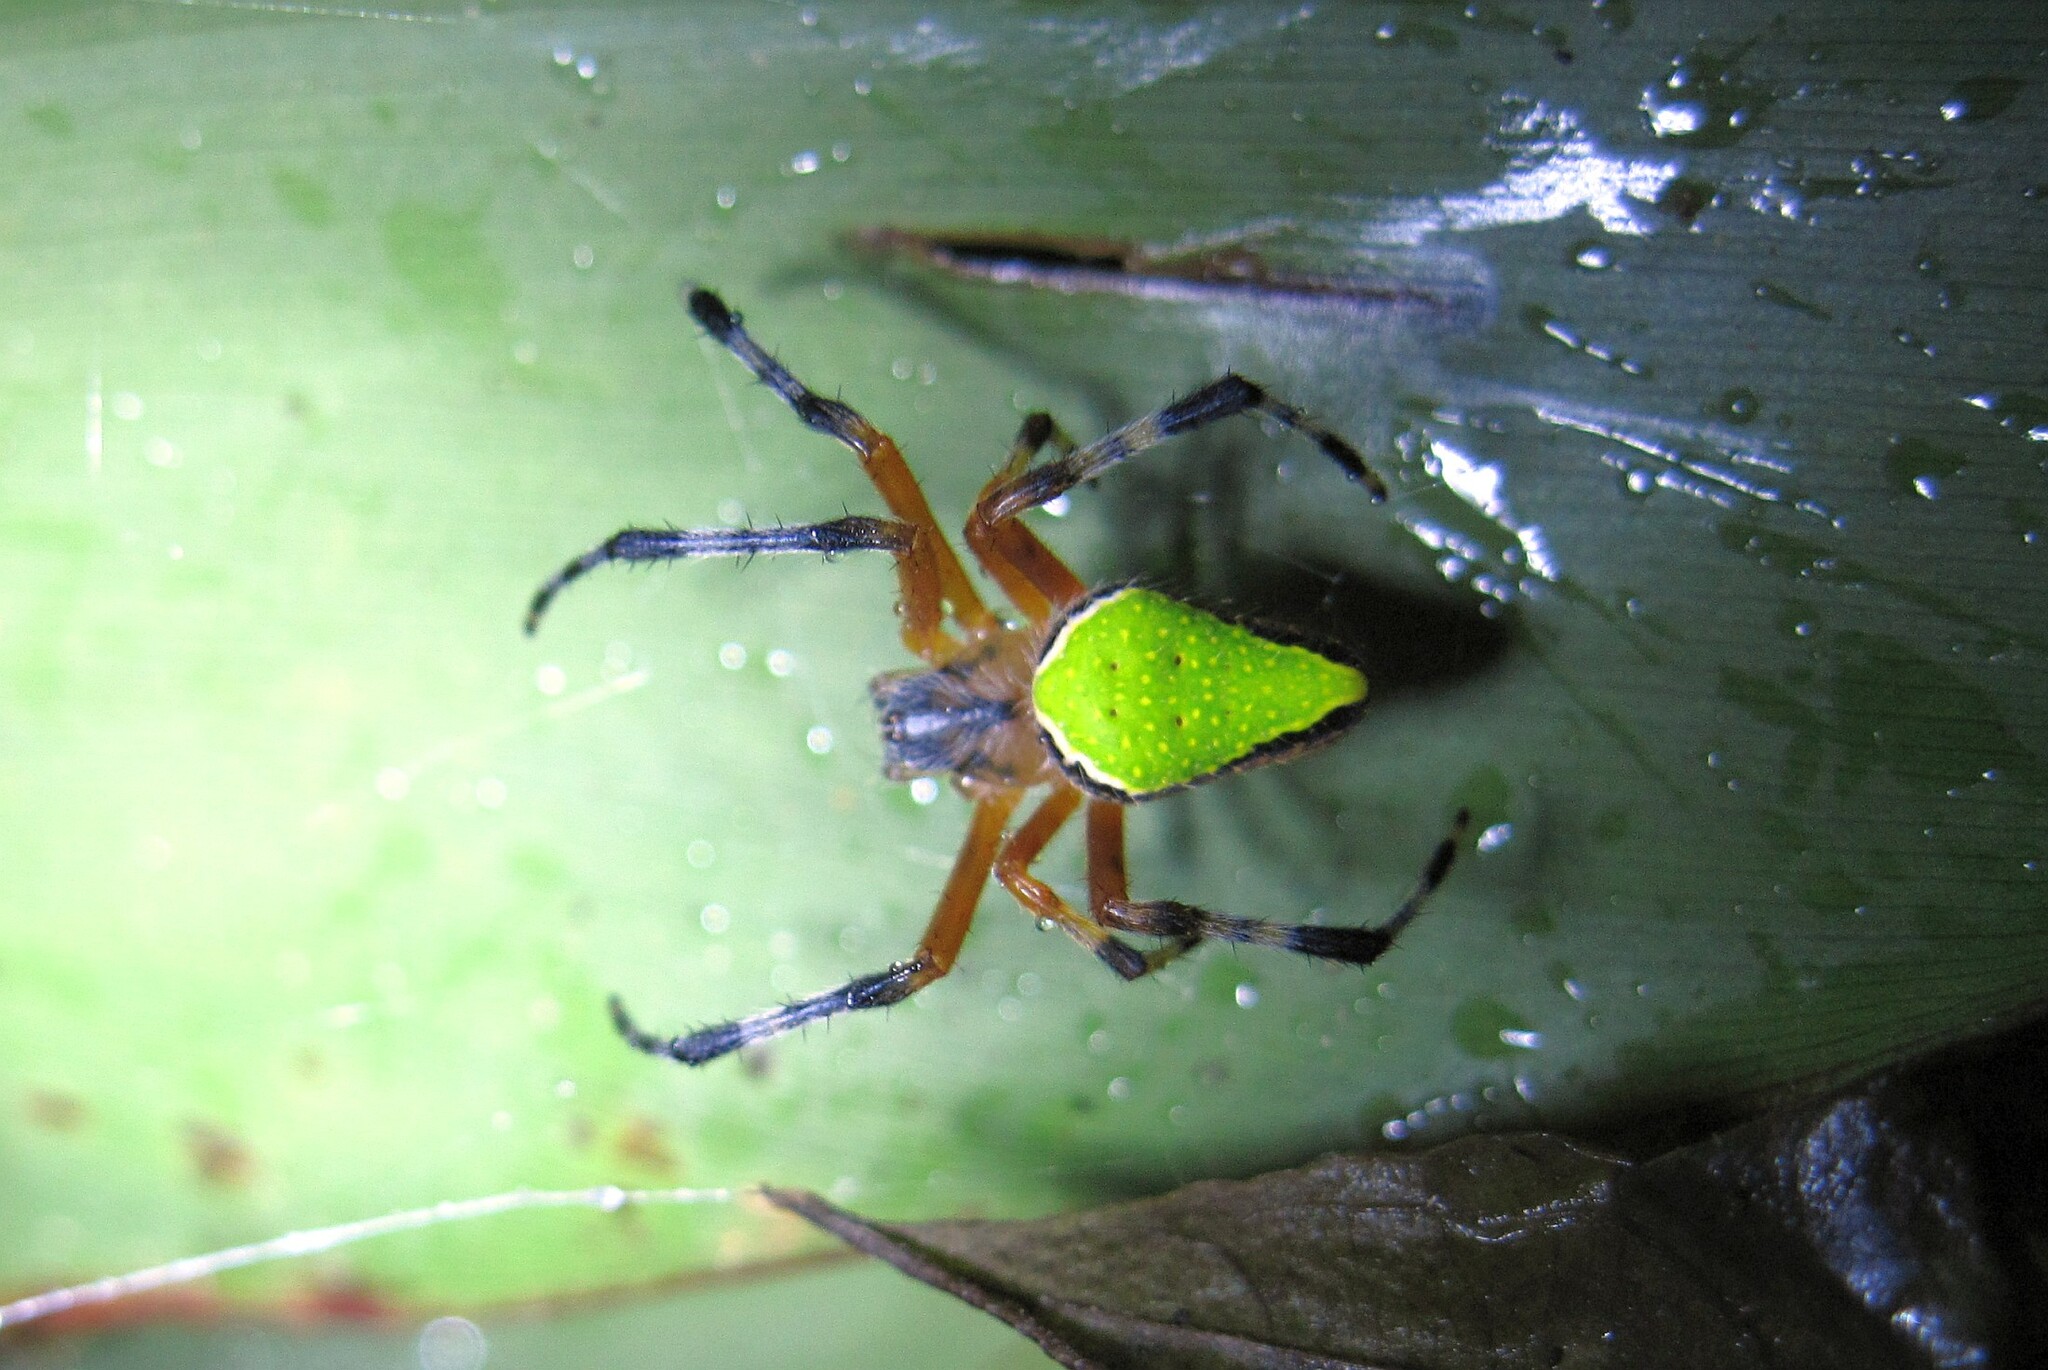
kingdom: Animalia
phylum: Arthropoda
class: Arachnida
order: Araneae
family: Araneidae
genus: Eriophora
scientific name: Eriophora nephiloides
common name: Orb weavers
